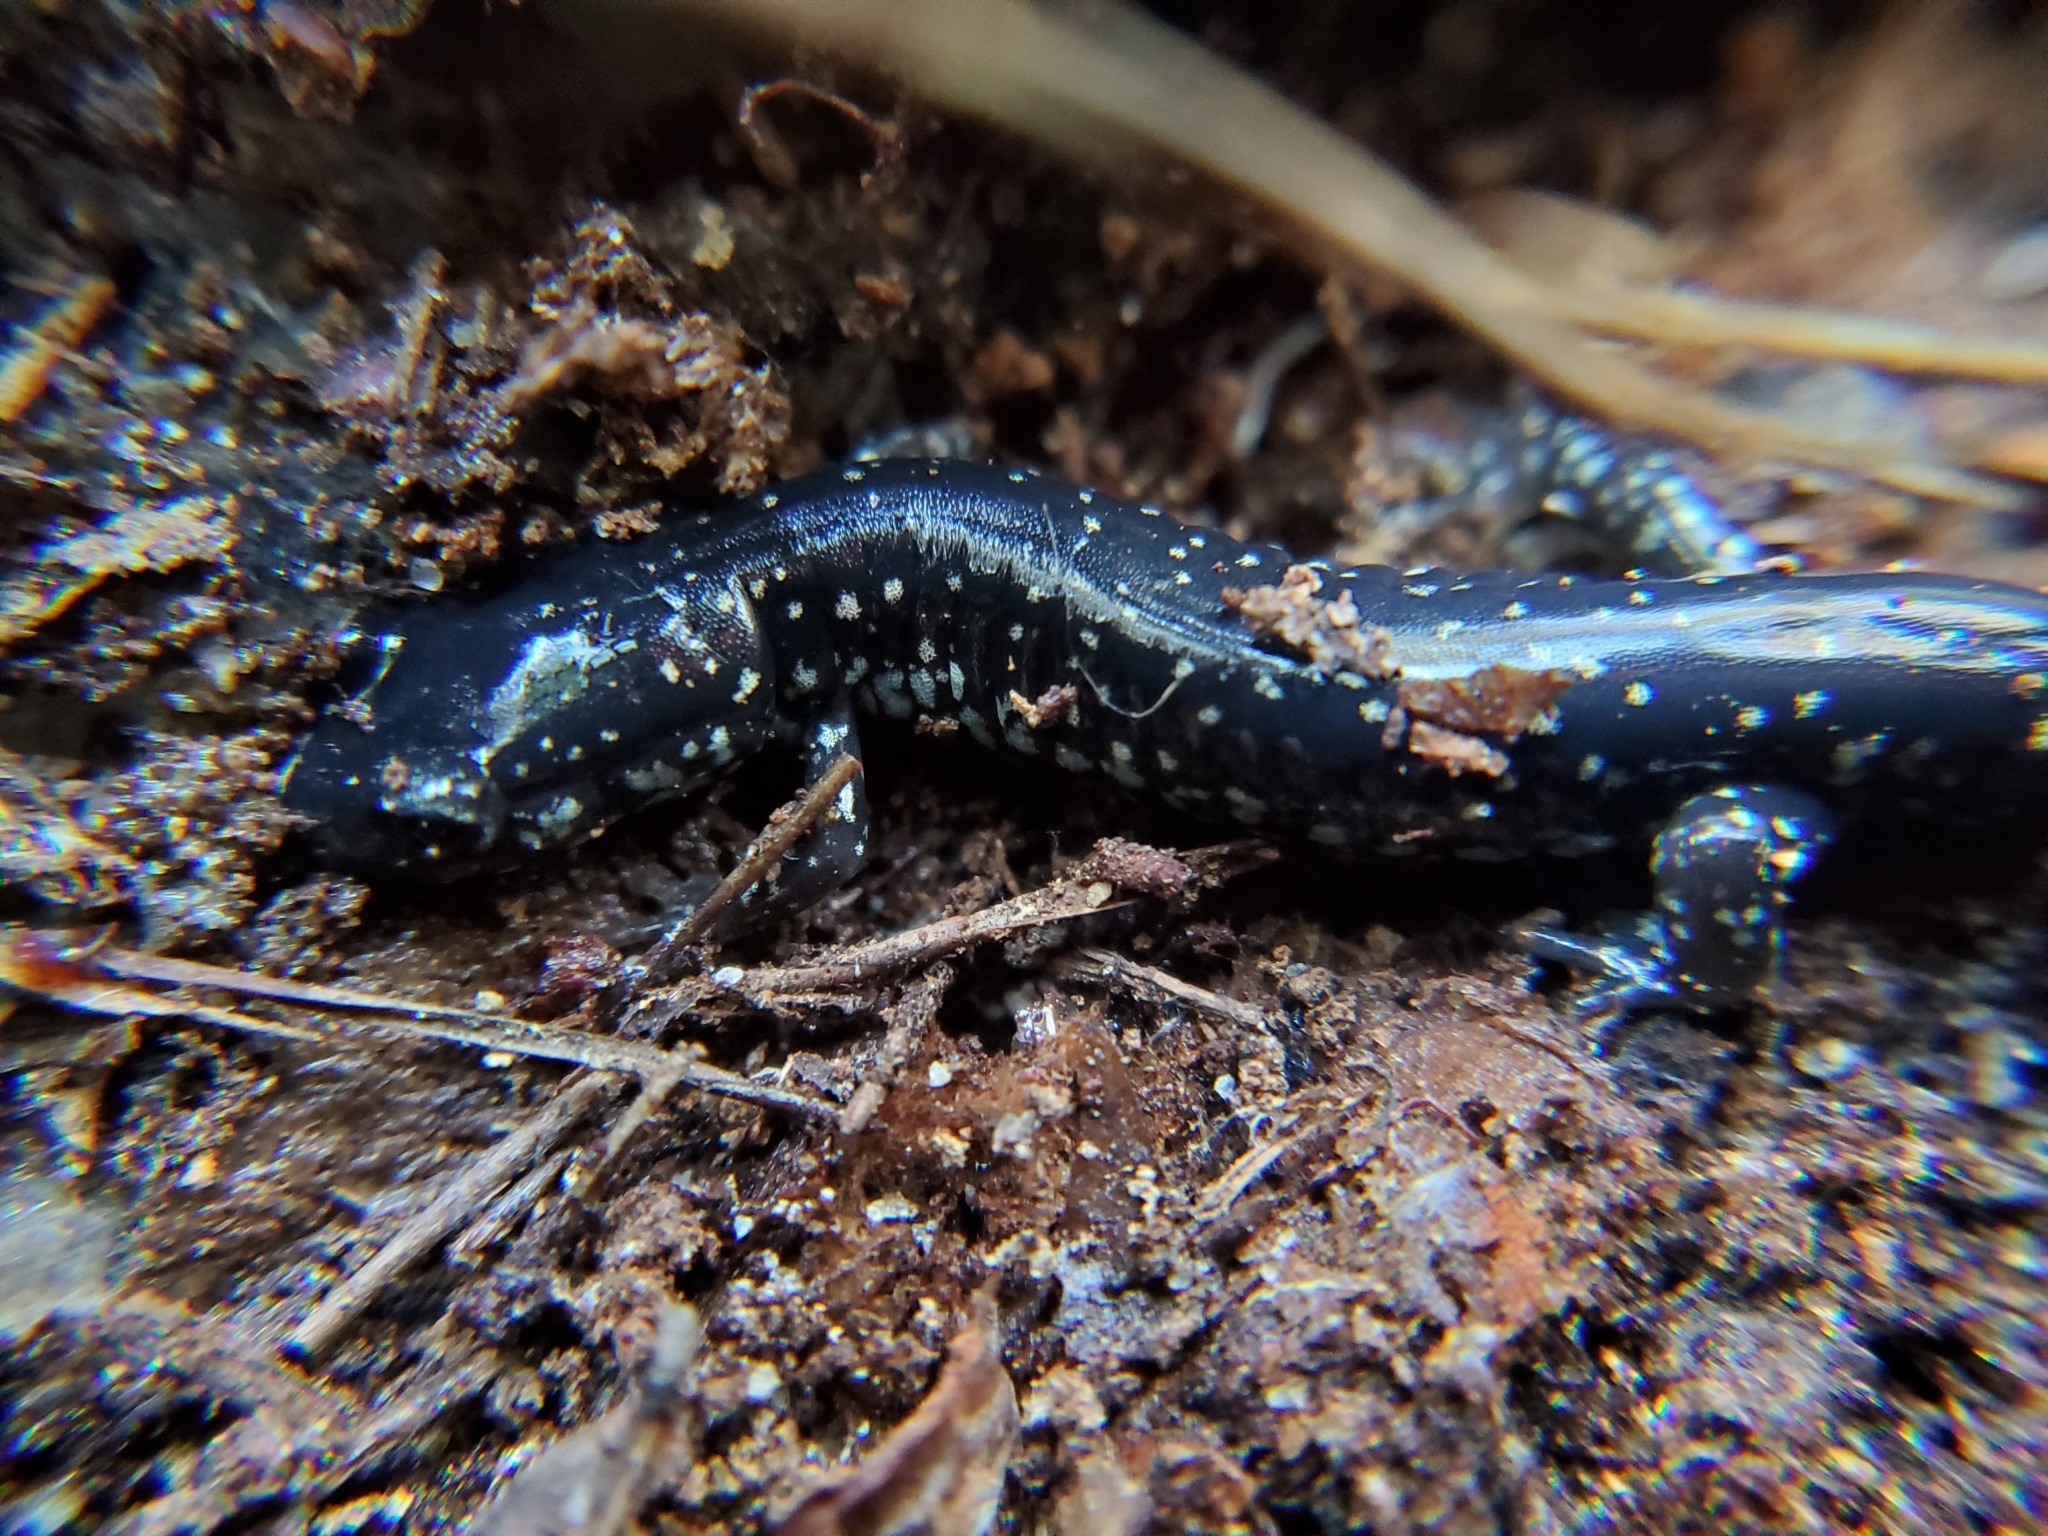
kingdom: Animalia
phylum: Chordata
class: Amphibia
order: Caudata
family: Plethodontidae
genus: Plethodon
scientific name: Plethodon grobmani
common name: Southeastern slimy salamander
